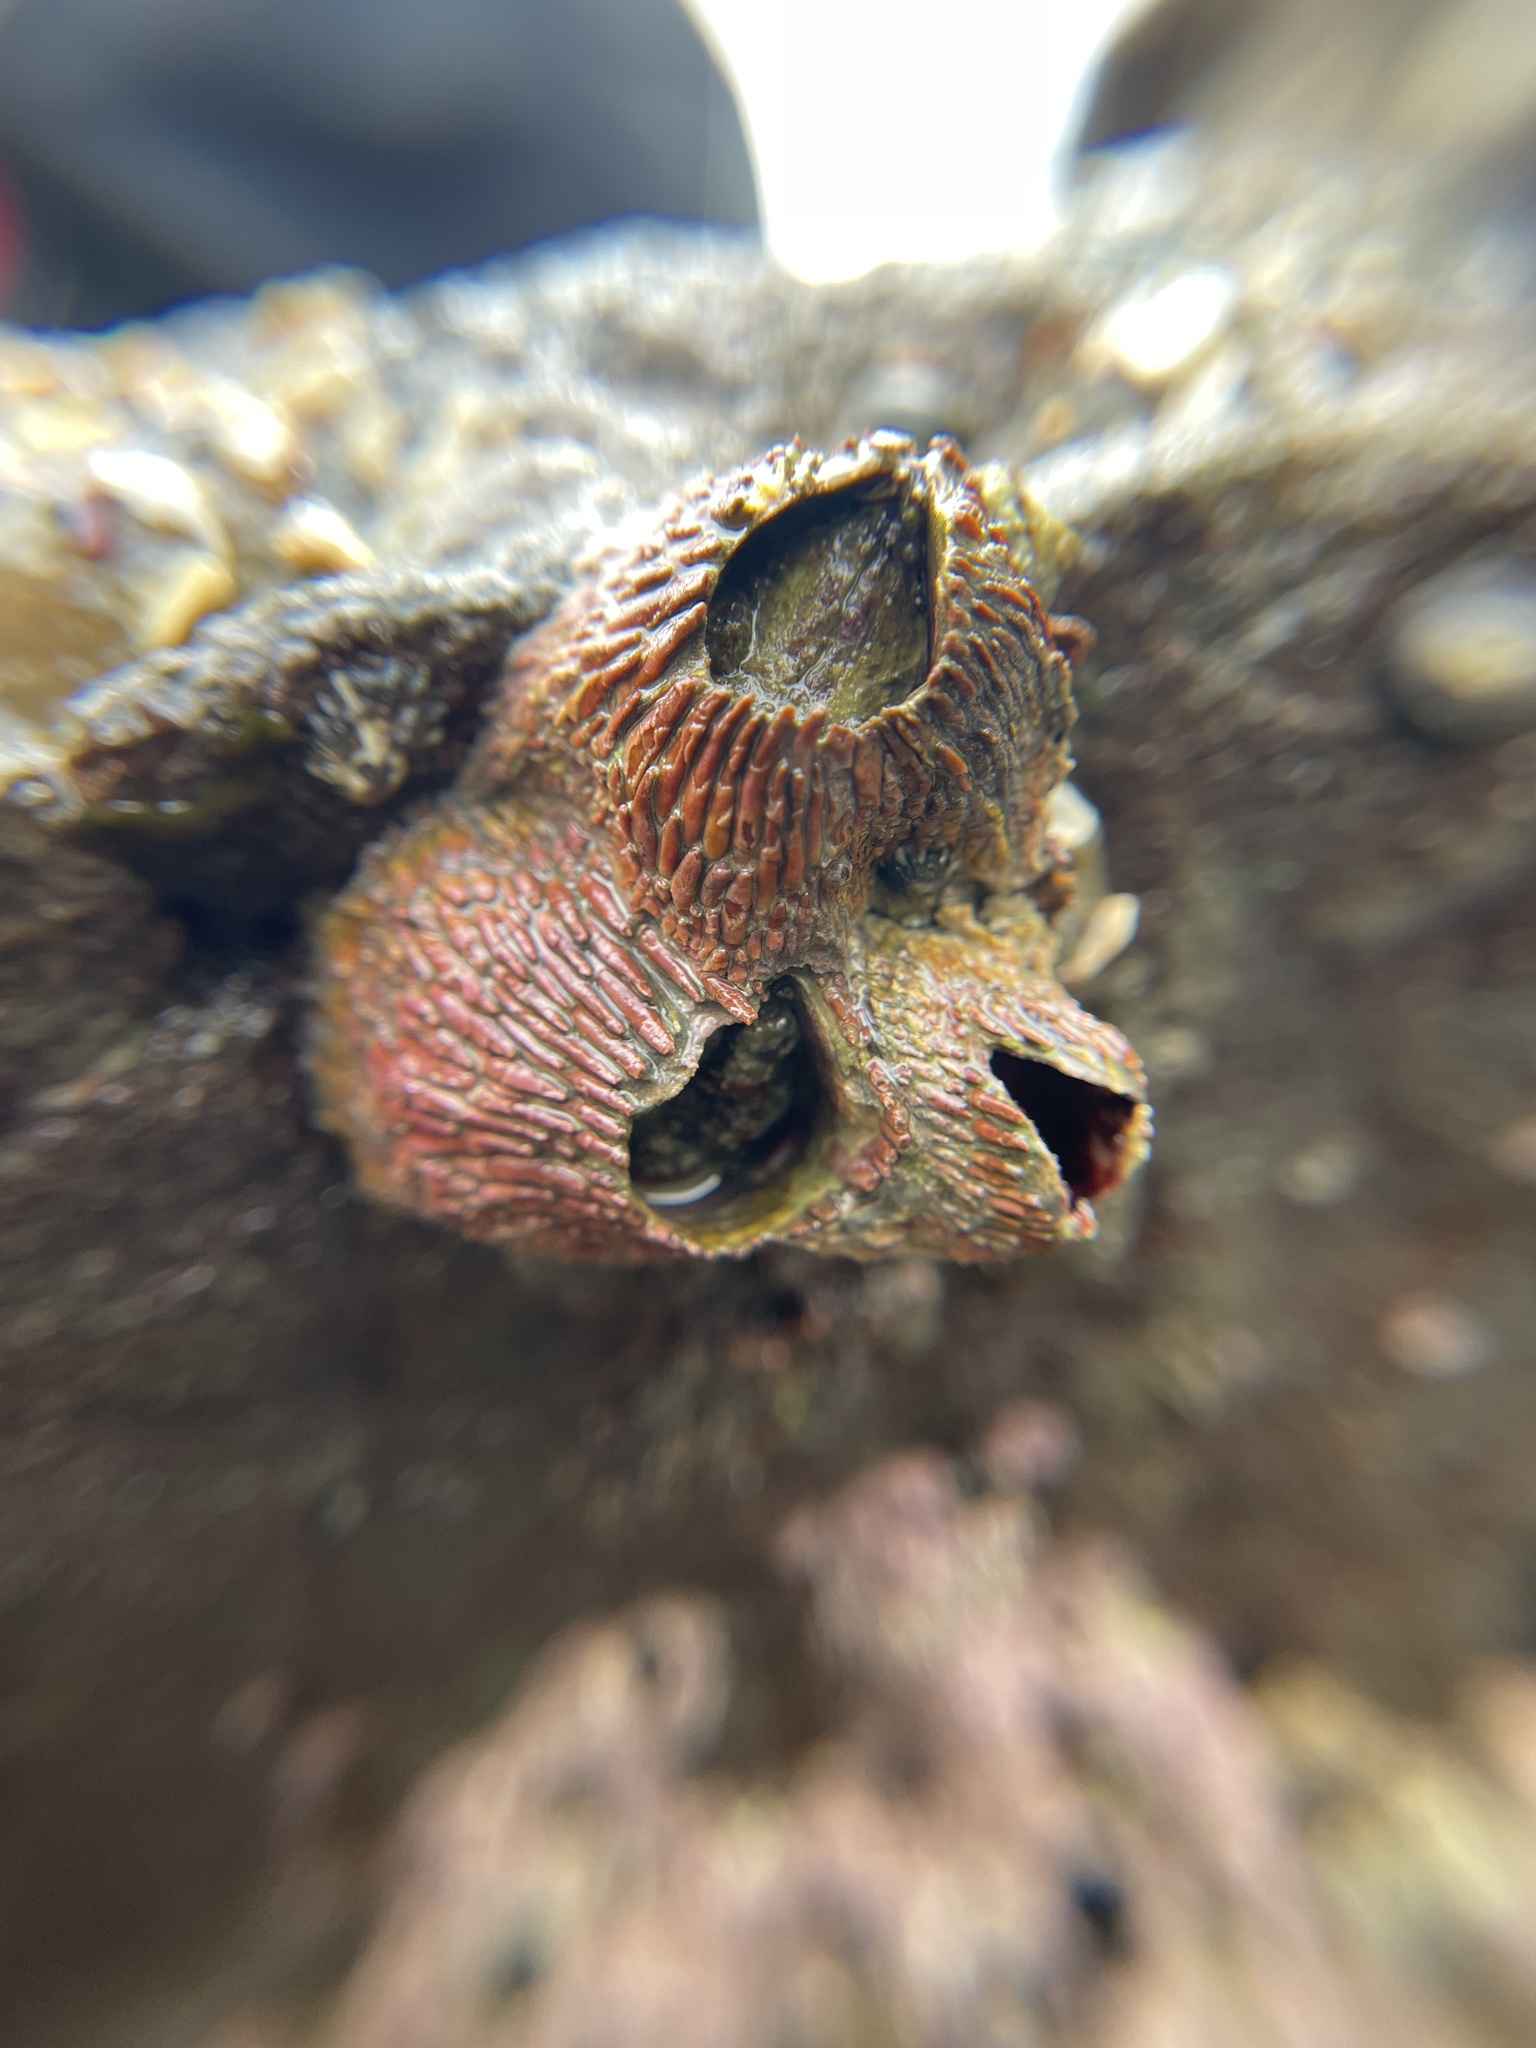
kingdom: Animalia
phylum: Arthropoda
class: Maxillopoda
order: Sessilia
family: Tetraclitidae
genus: Tetraclita
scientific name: Tetraclita rubescens
